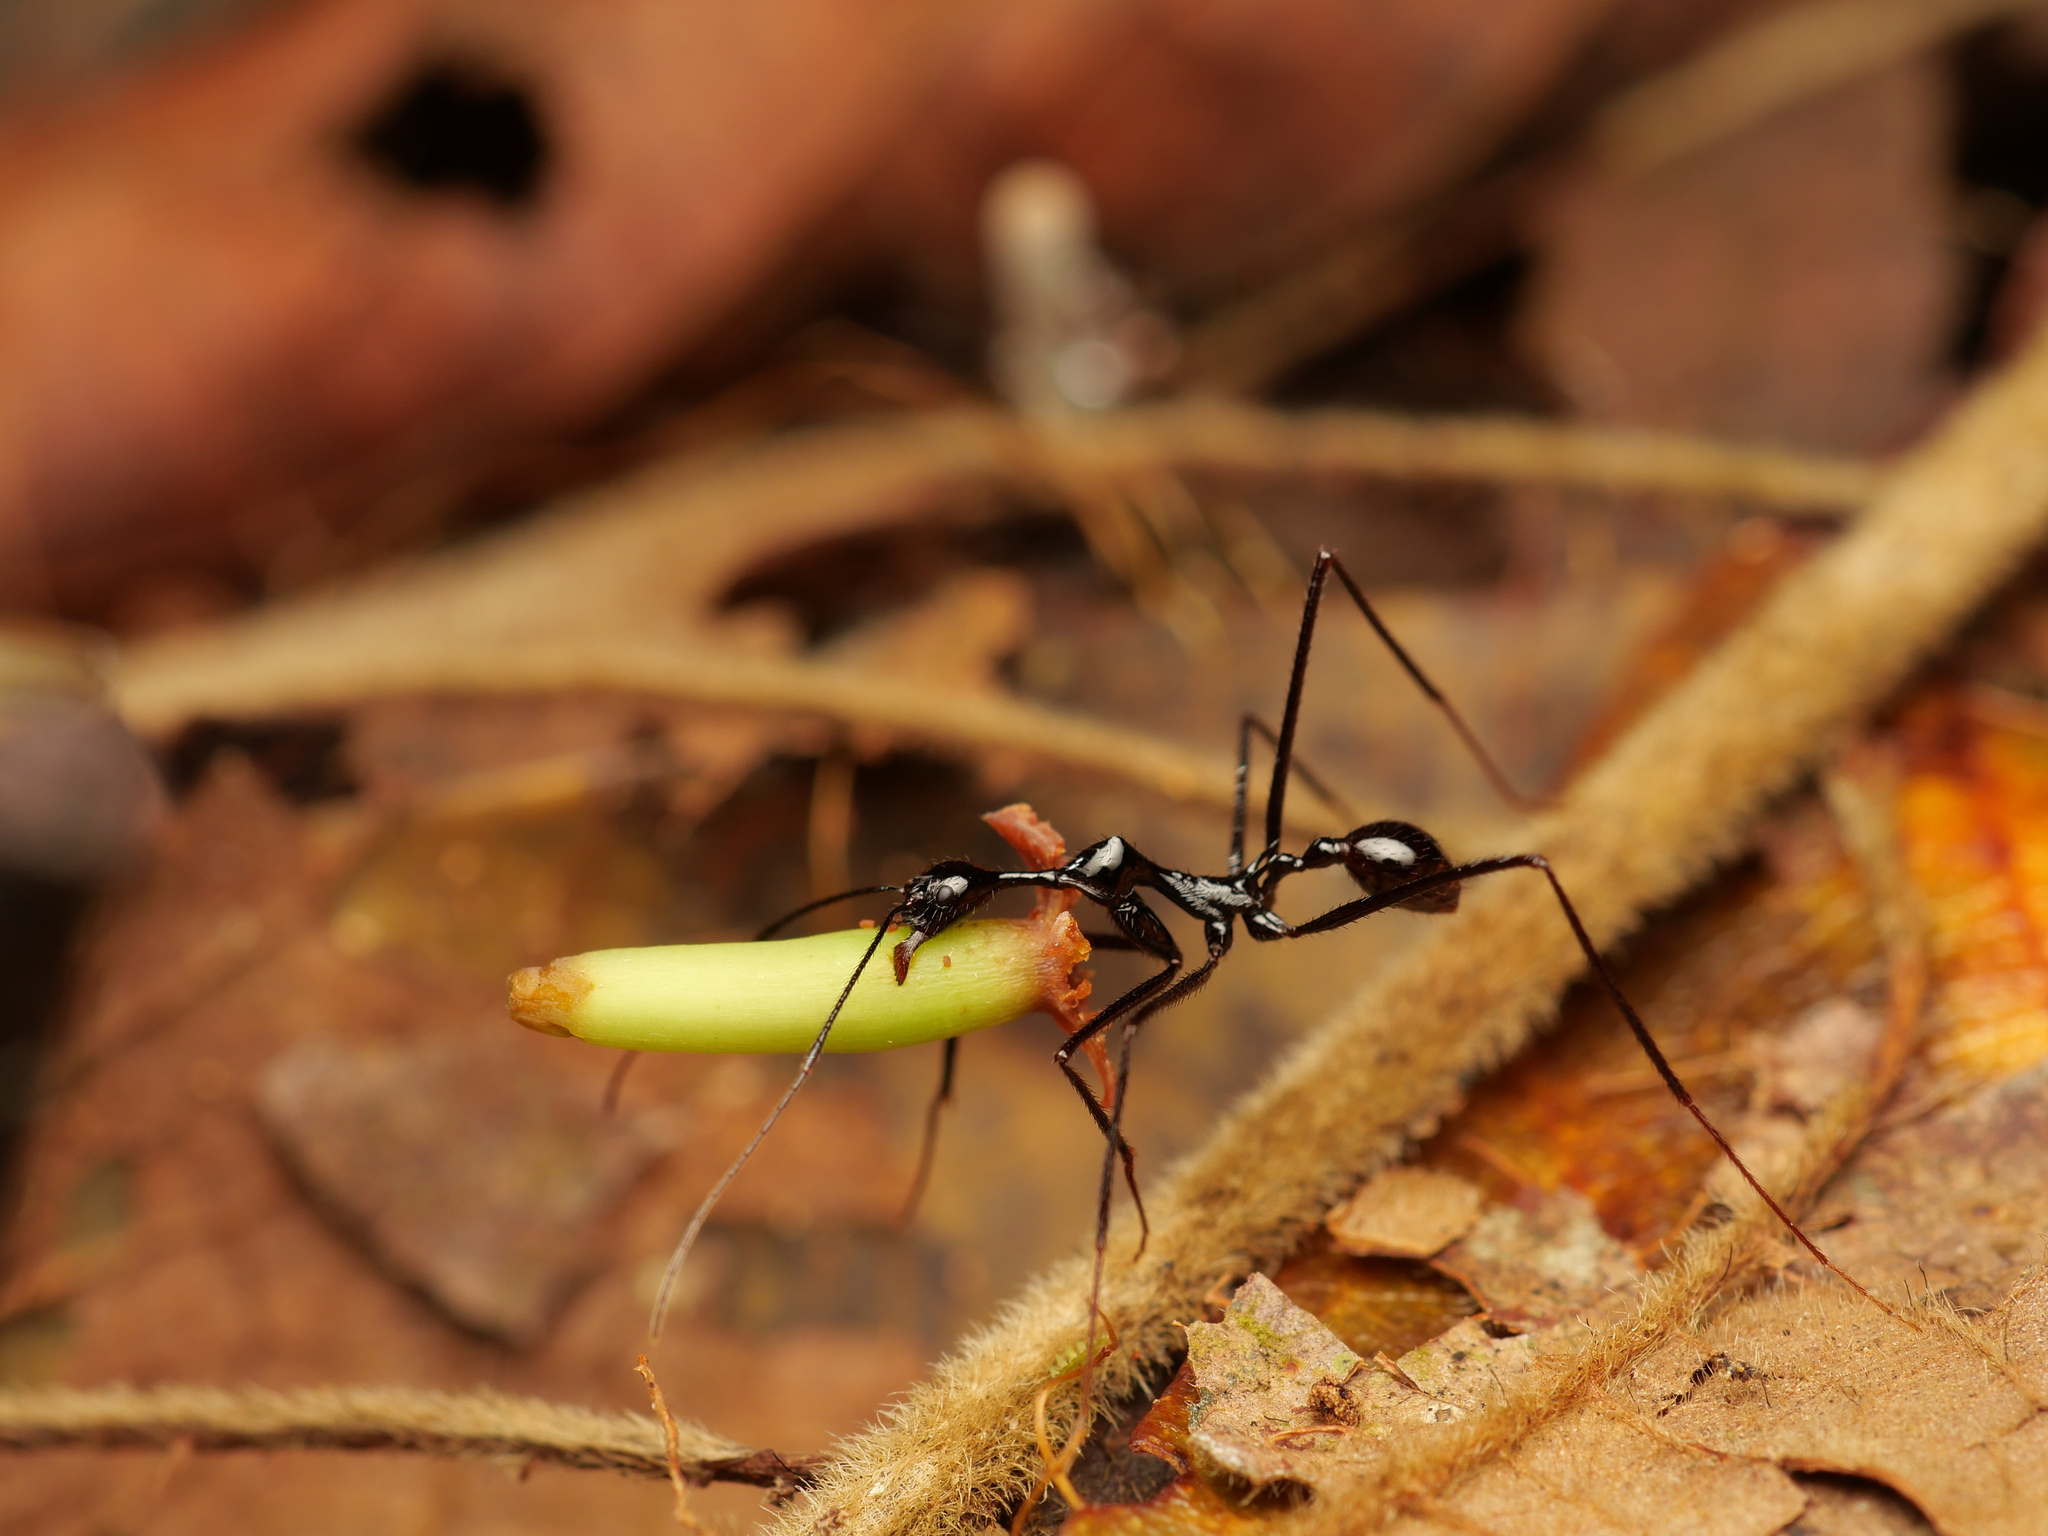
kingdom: Animalia
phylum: Arthropoda
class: Insecta
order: Hymenoptera
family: Formicidae
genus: Aphaenogaster
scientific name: Aphaenogaster dromedaria
